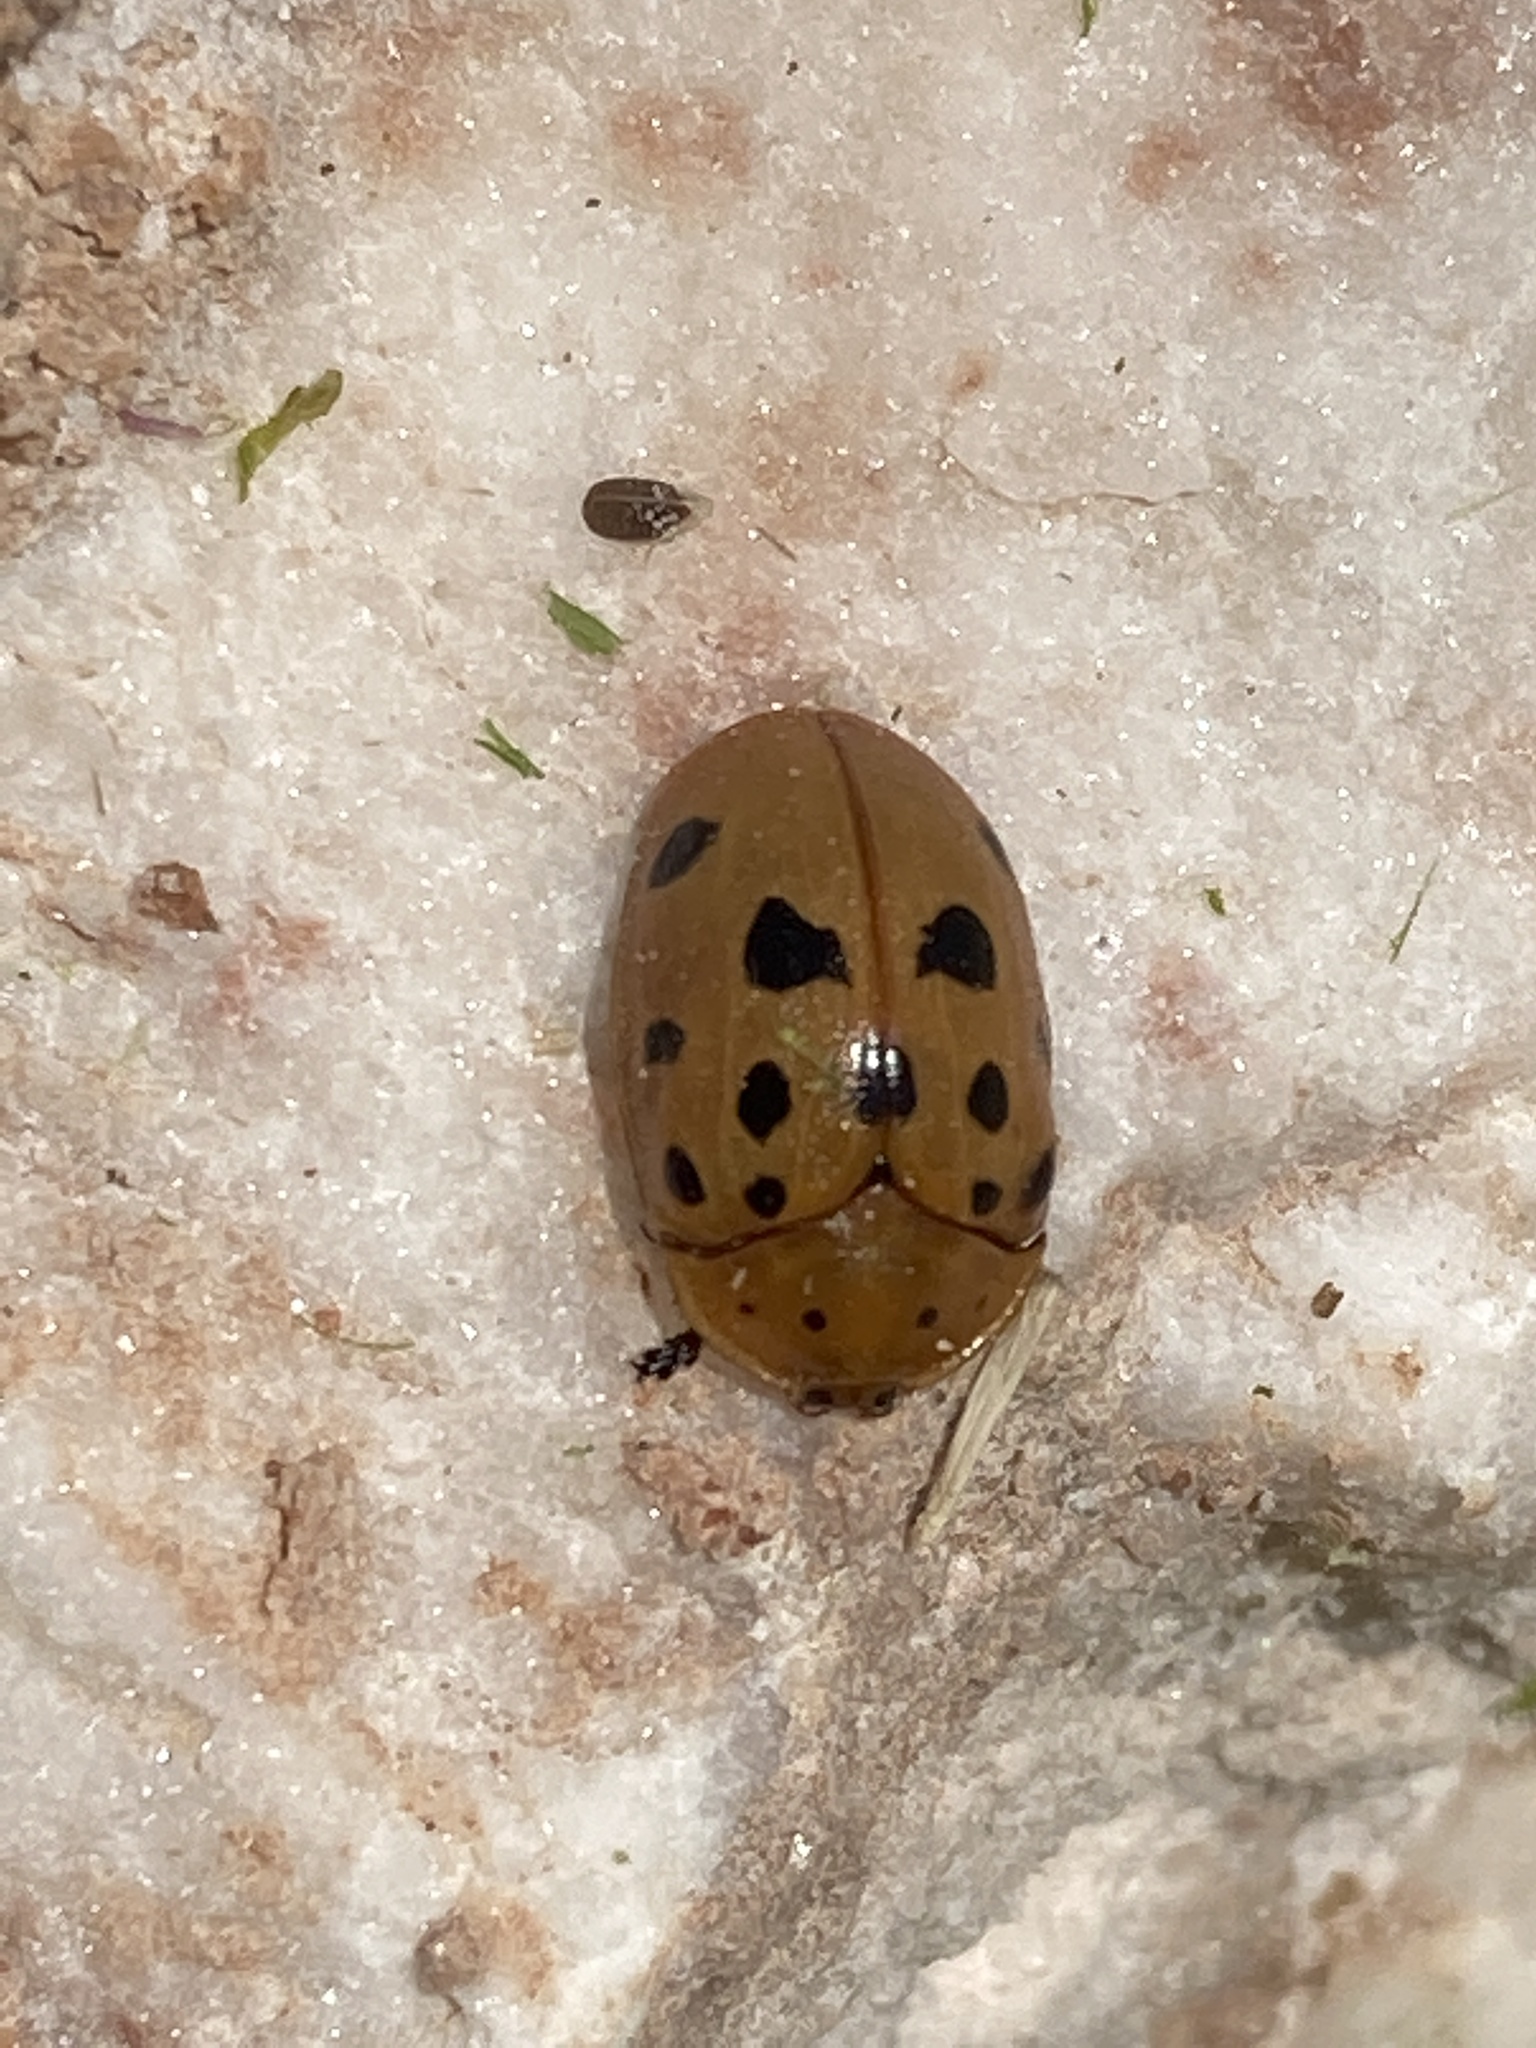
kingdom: Animalia
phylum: Arthropoda
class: Insecta
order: Coleoptera
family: Chrysomelidae
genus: Chelymorpha
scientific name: Chelymorpha cassidea
